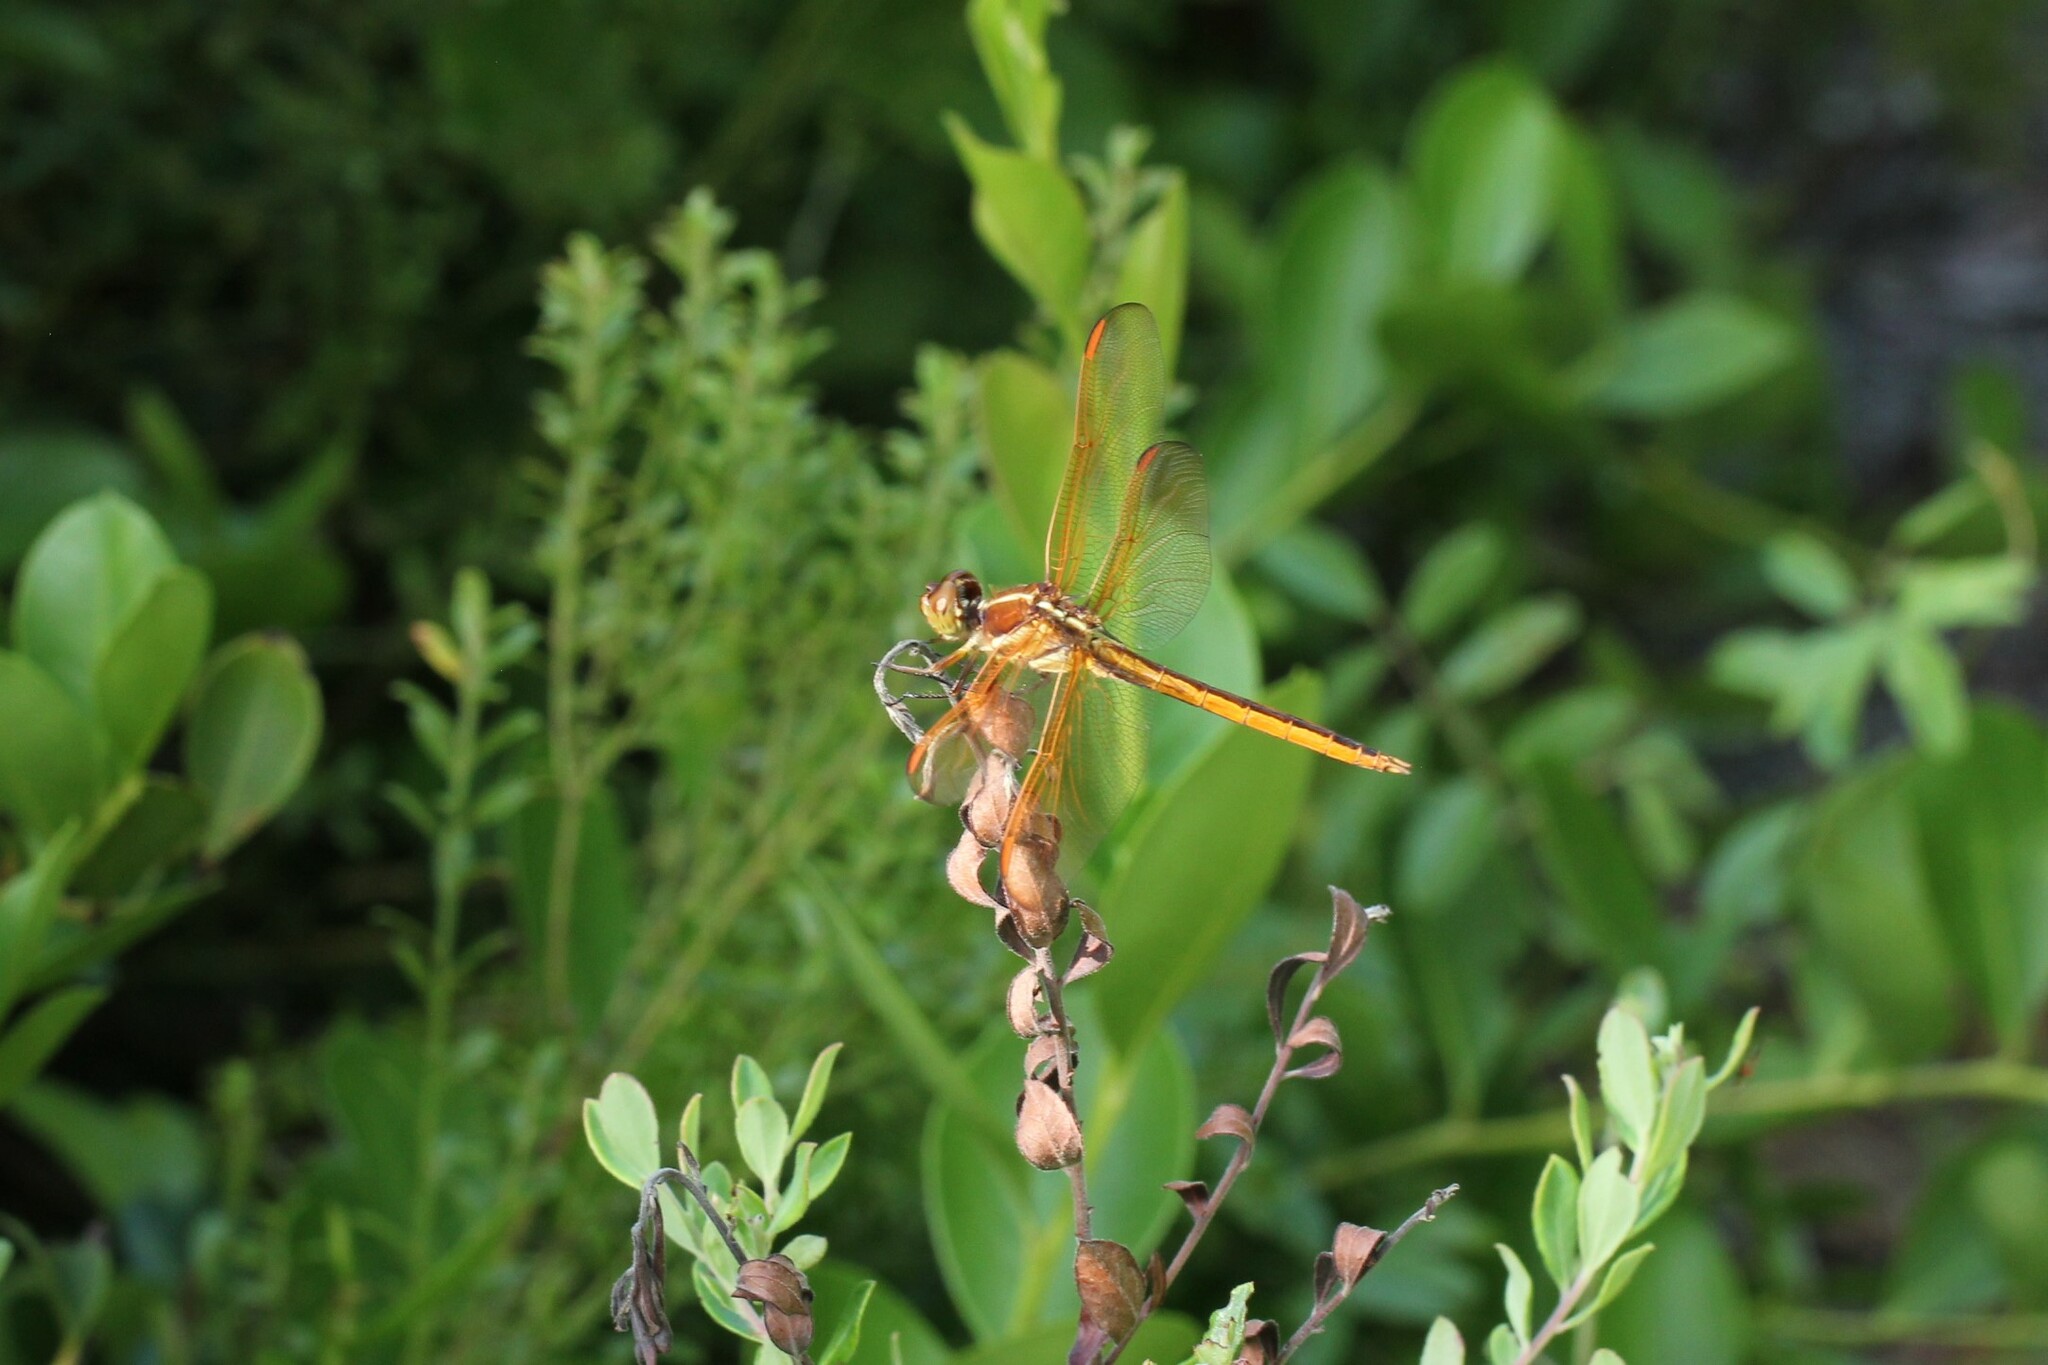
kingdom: Animalia
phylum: Arthropoda
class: Insecta
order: Odonata
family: Libellulidae
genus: Libellula
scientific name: Libellula auripennis
